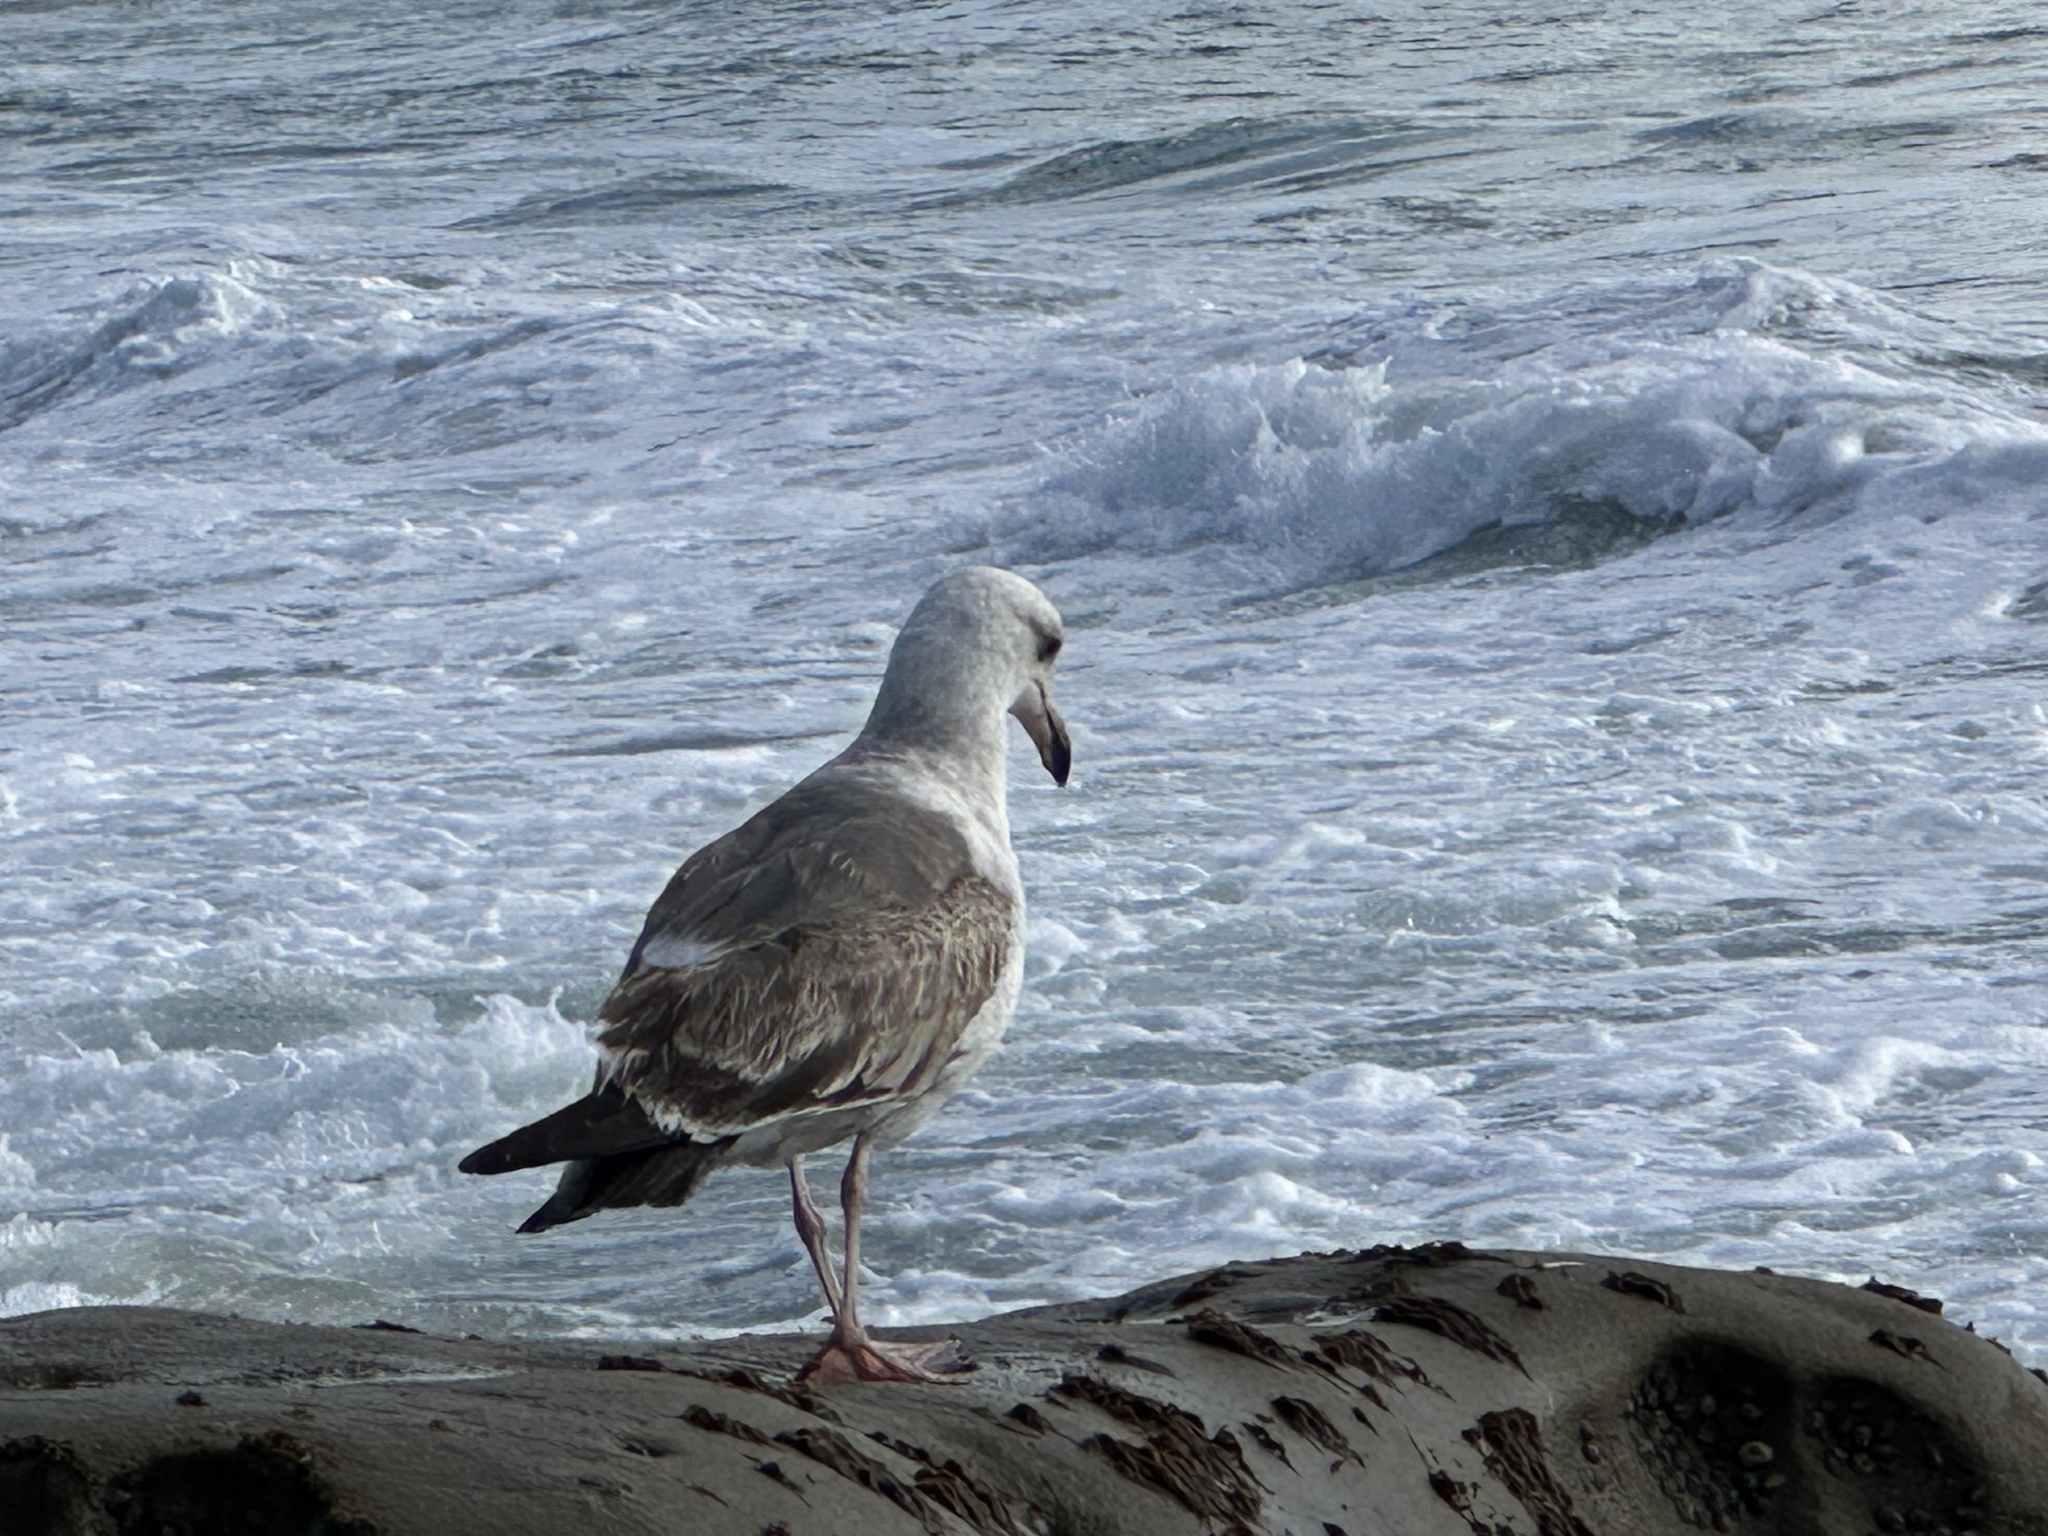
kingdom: Animalia
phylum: Chordata
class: Aves
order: Charadriiformes
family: Laridae
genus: Larus
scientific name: Larus occidentalis
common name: Western gull
